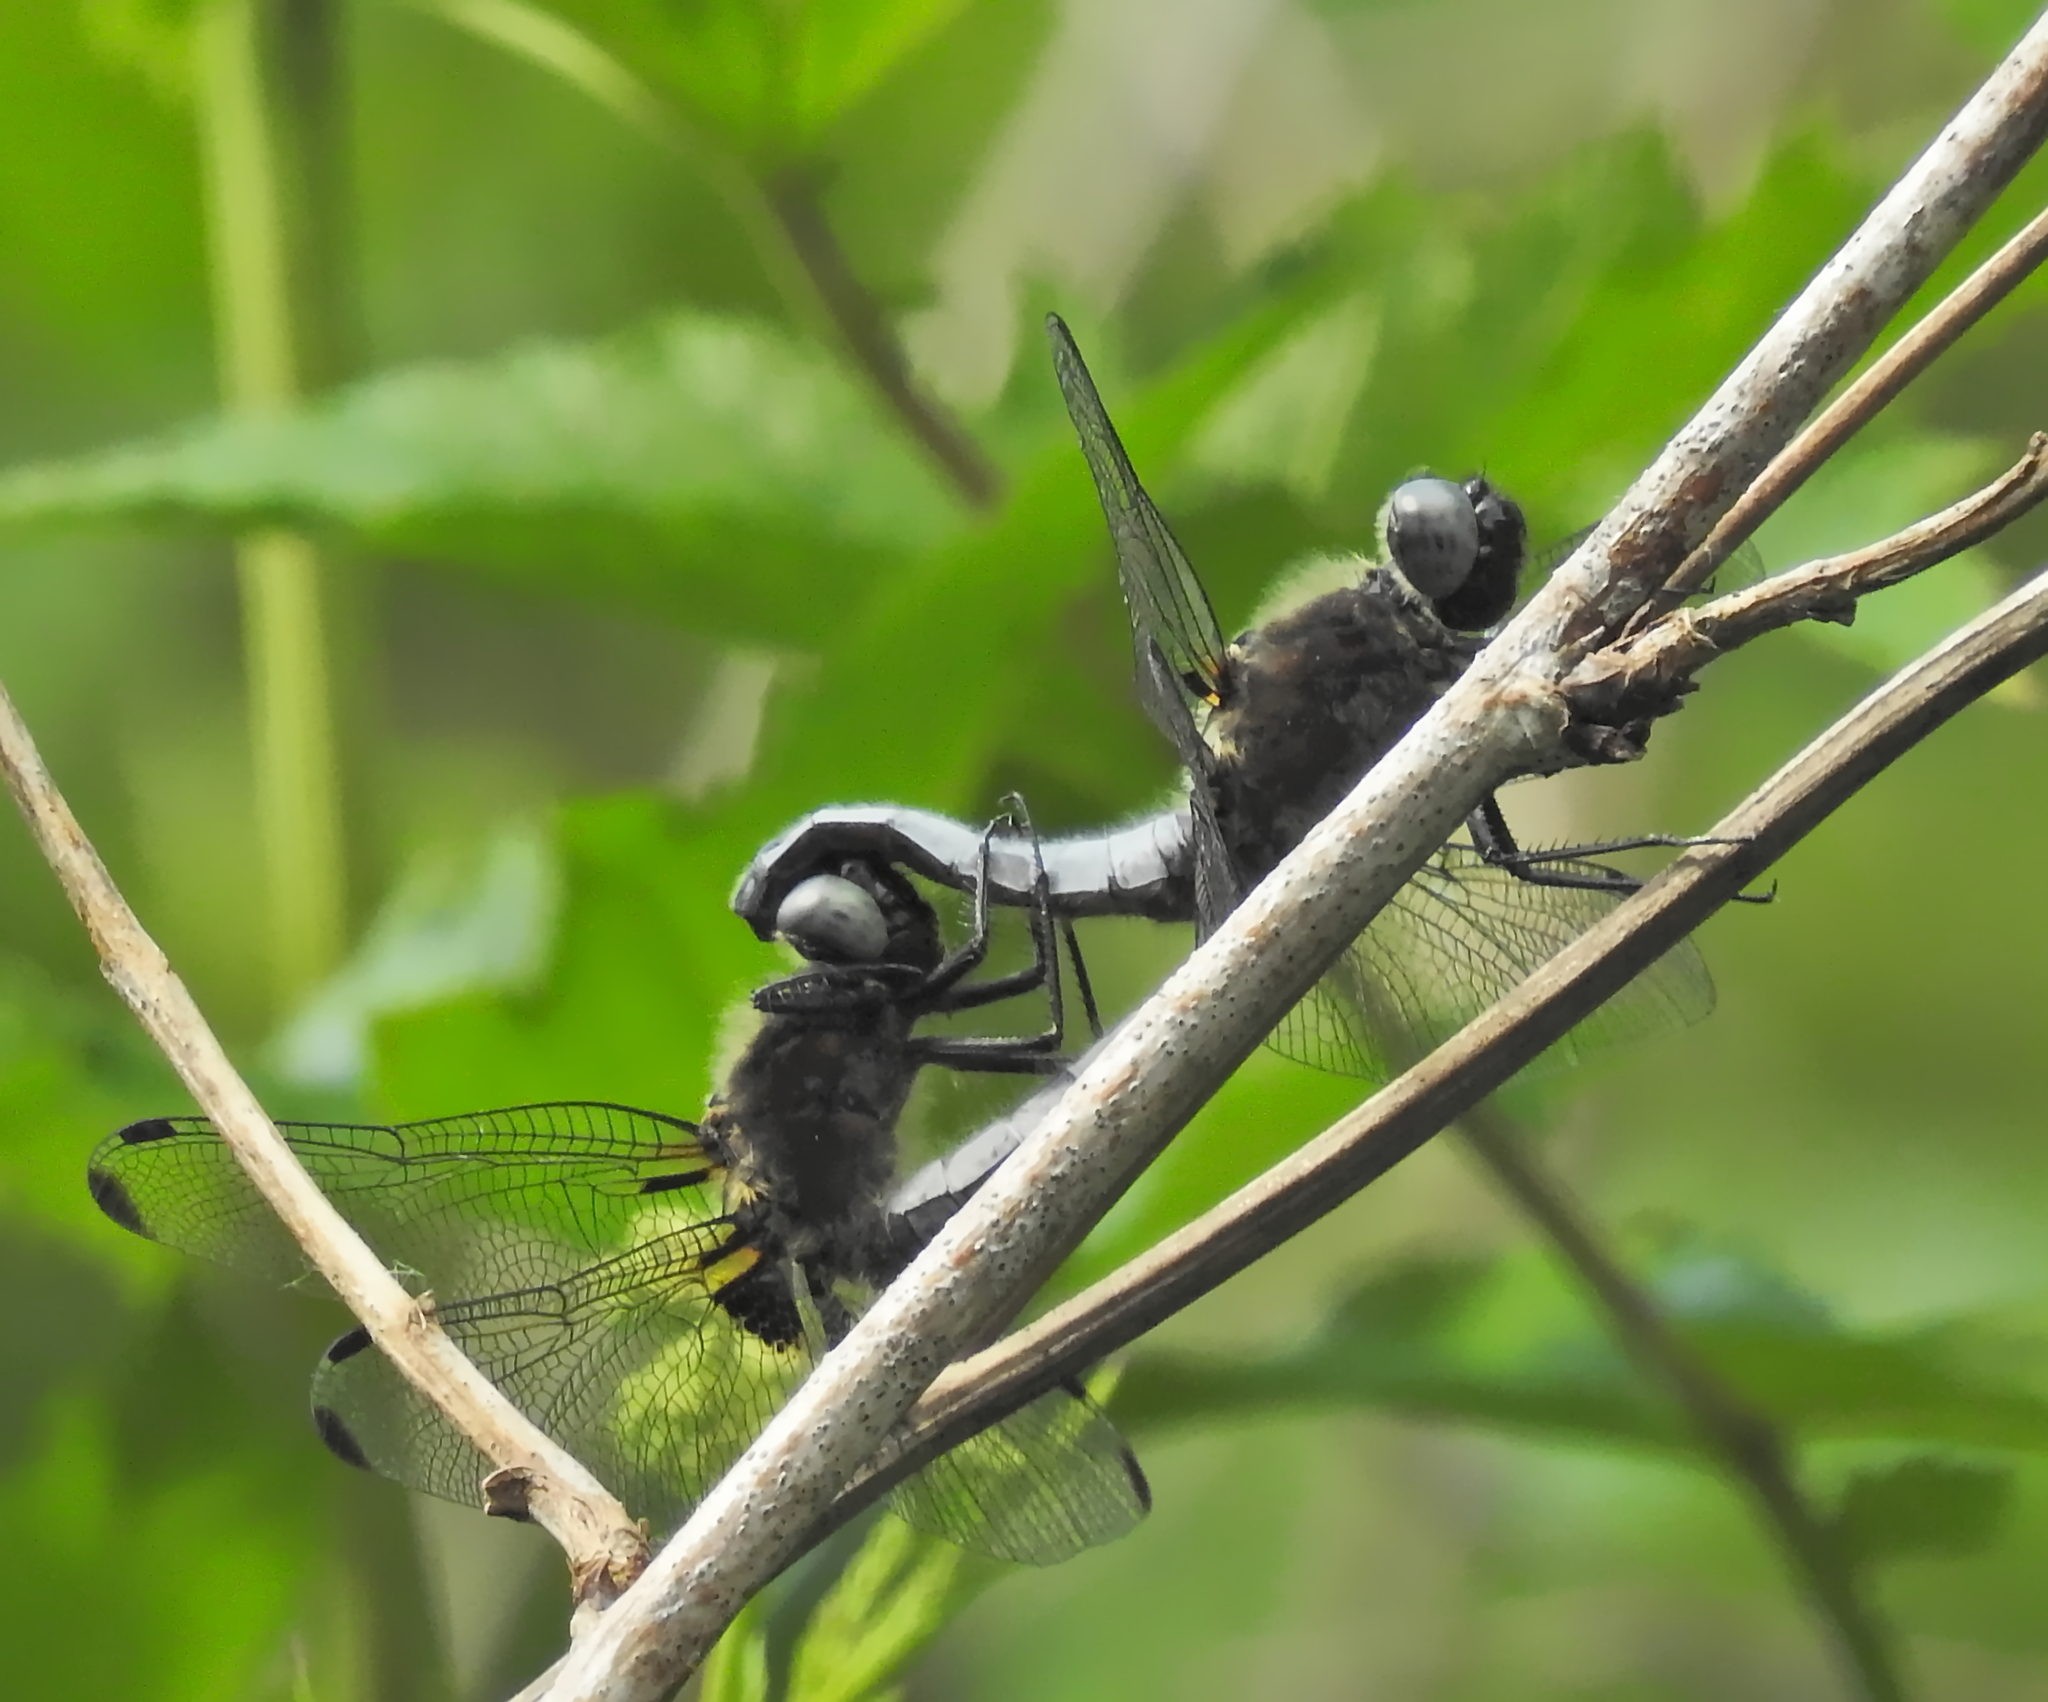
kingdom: Animalia
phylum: Arthropoda
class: Insecta
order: Odonata
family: Libellulidae
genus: Libellula
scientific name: Libellula fulva
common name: Blue chaser
